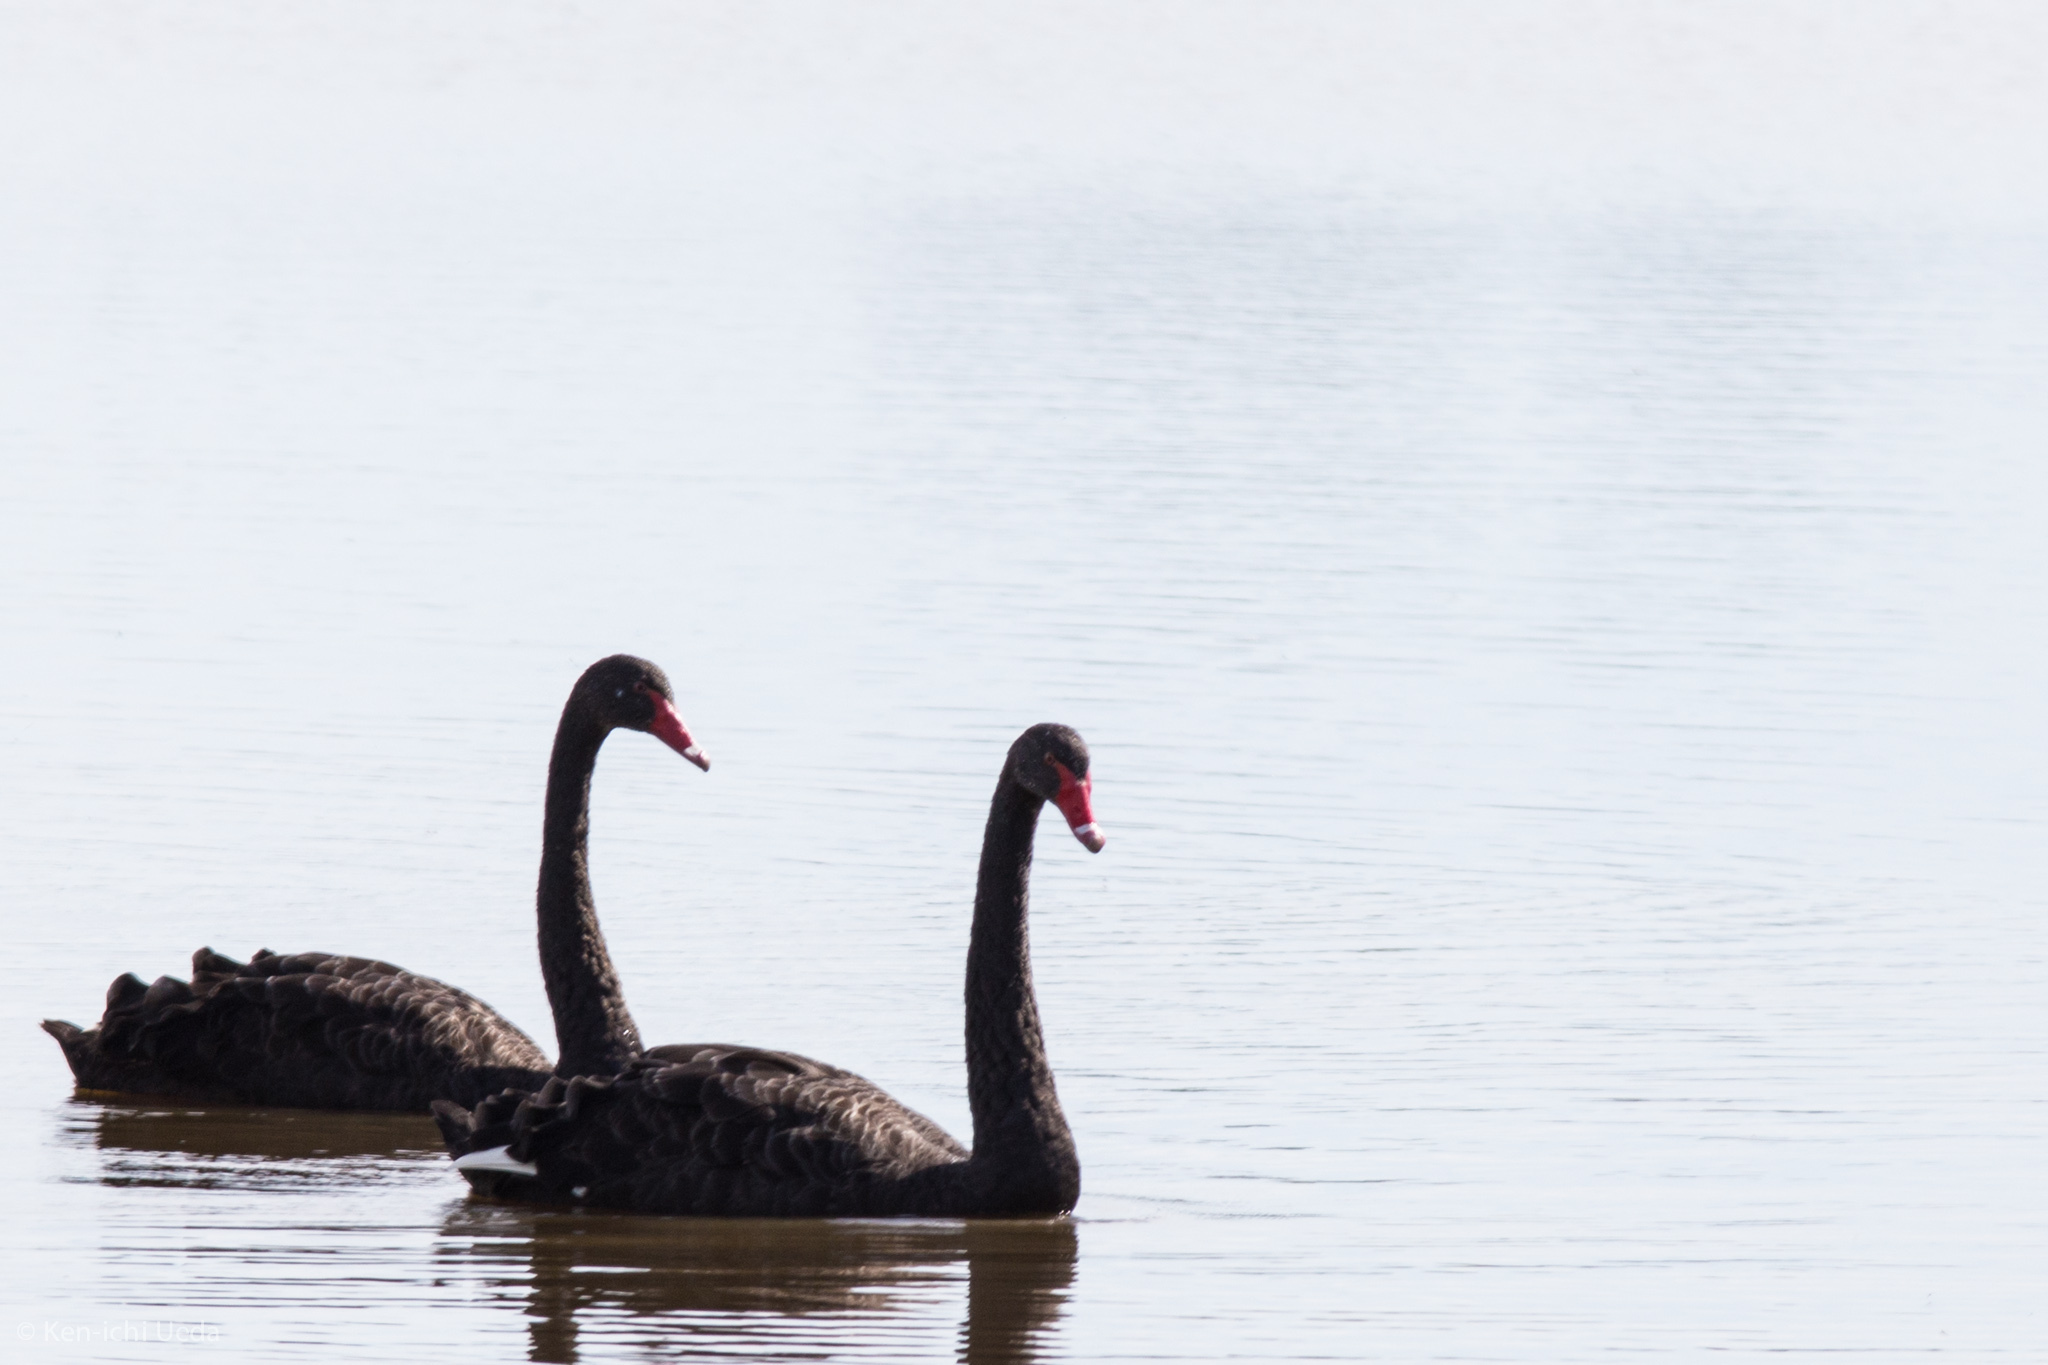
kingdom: Animalia
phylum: Chordata
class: Aves
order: Anseriformes
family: Anatidae
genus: Cygnus
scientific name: Cygnus atratus
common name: Black swan
